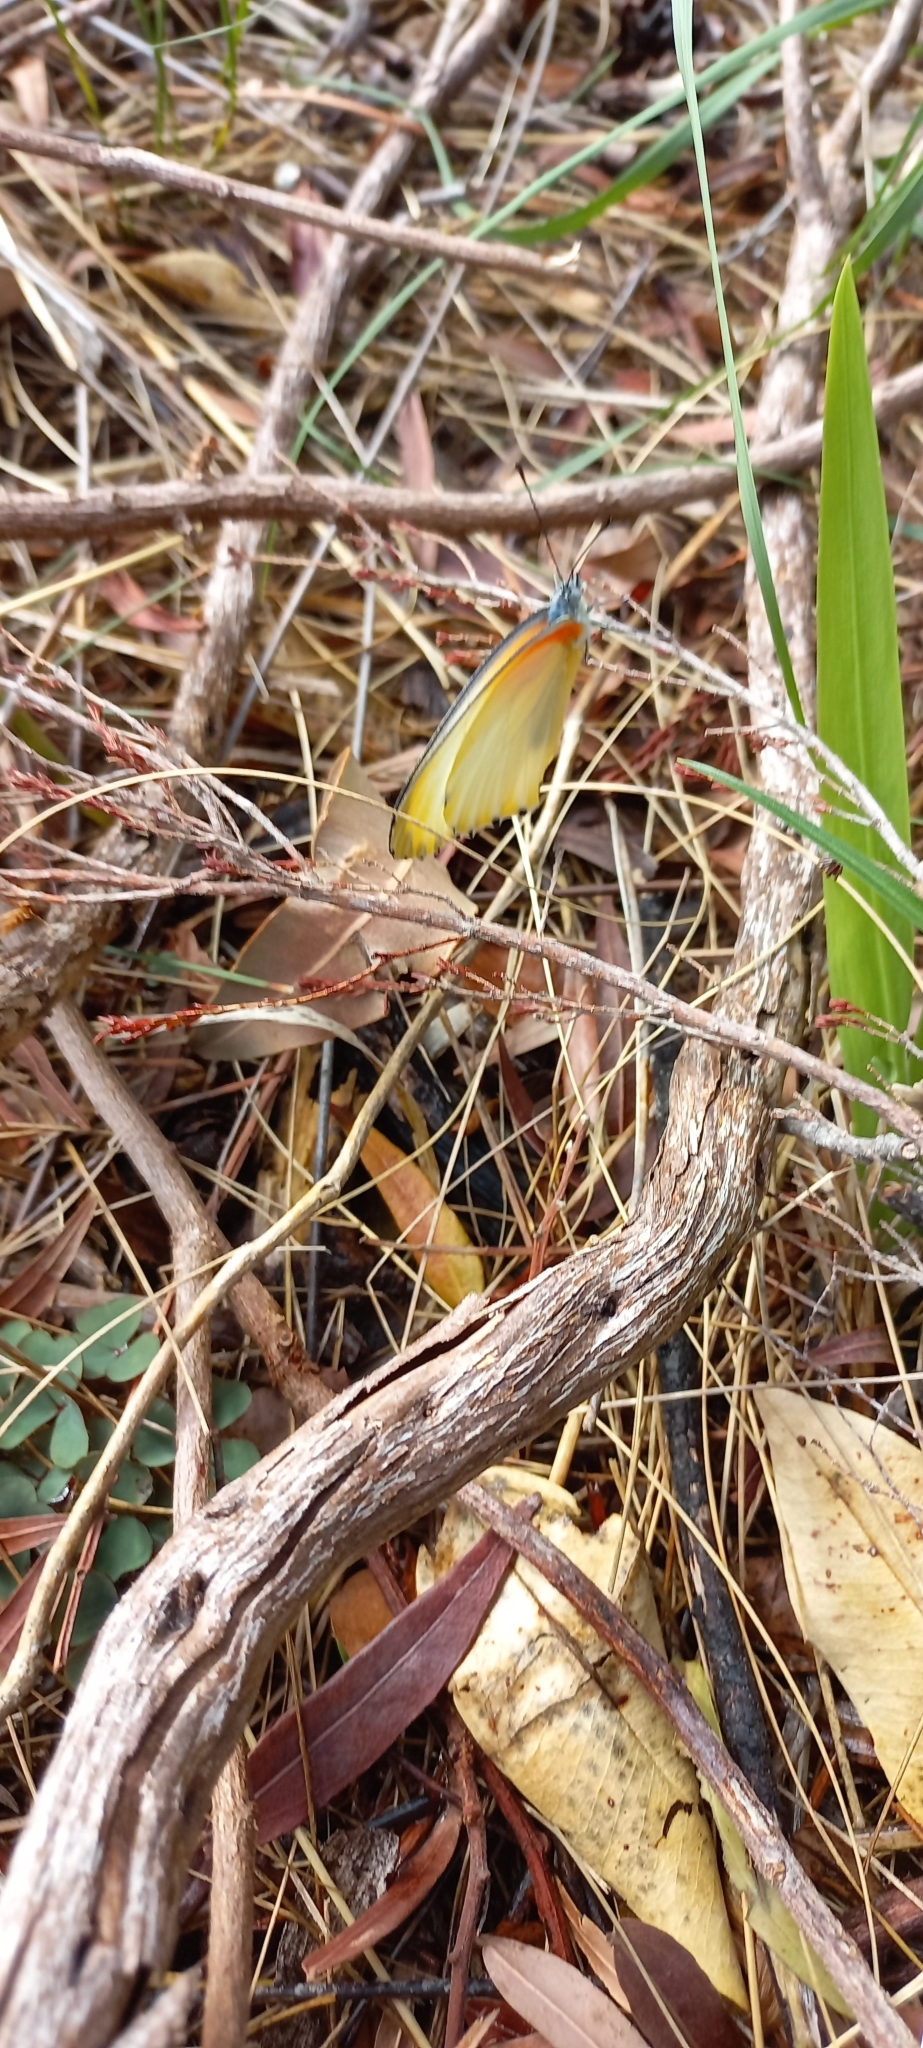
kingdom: Animalia
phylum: Arthropoda
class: Insecta
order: Lepidoptera
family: Pieridae
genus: Mylothris
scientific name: Mylothris agathina
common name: Eastern dotted border
